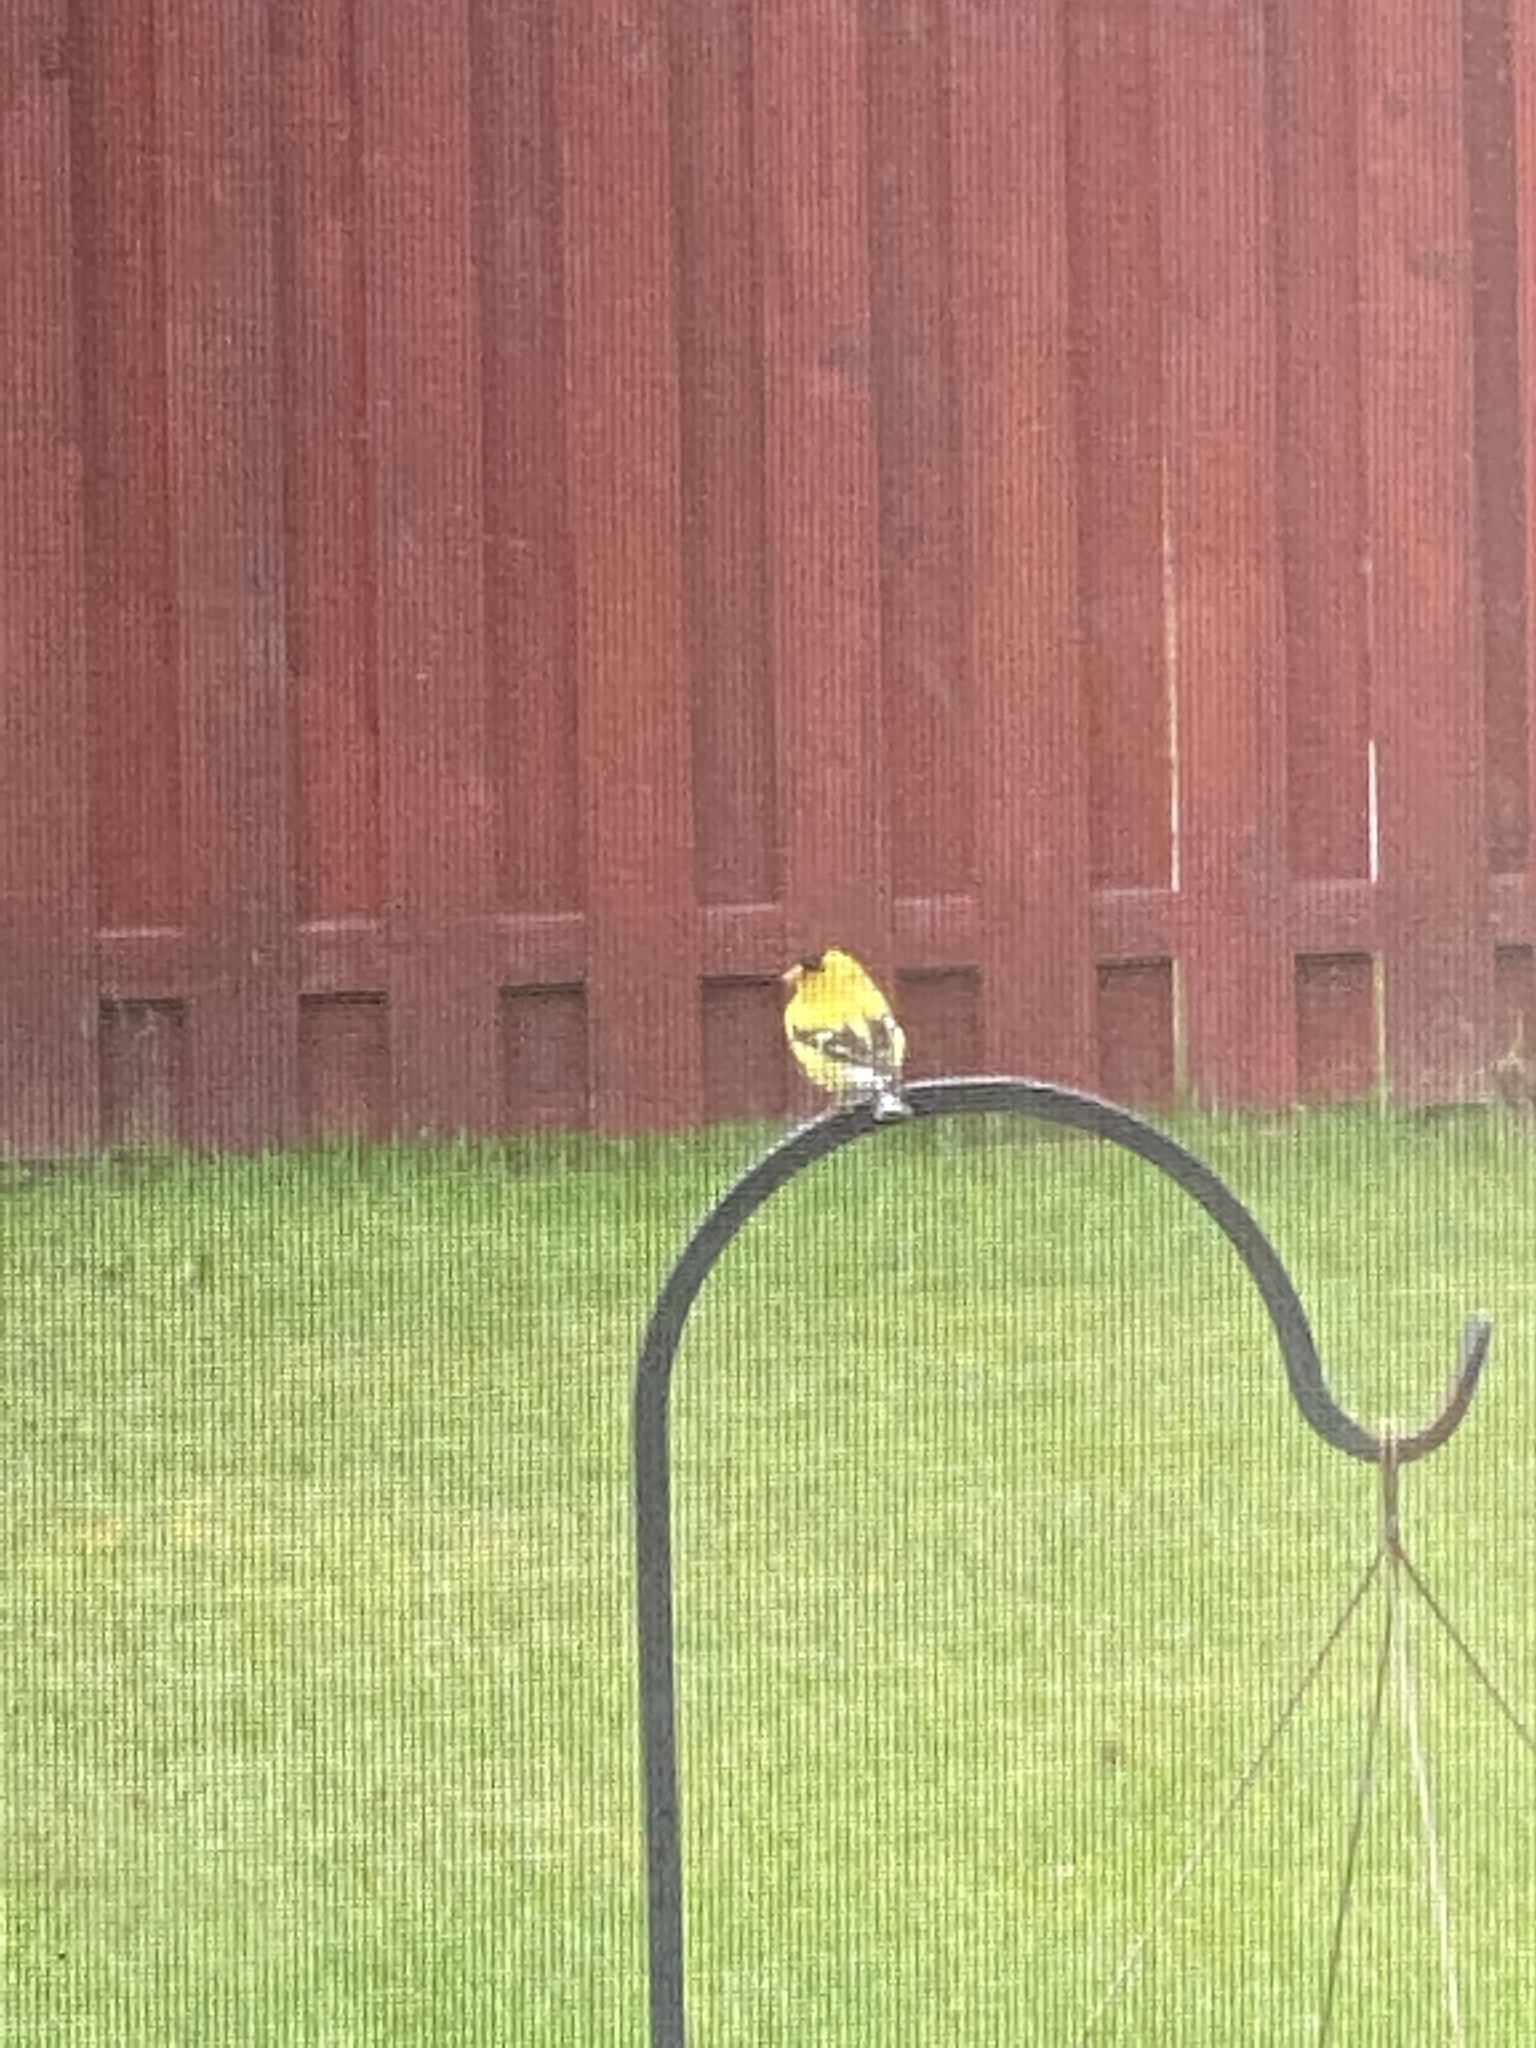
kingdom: Animalia
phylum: Chordata
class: Aves
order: Passeriformes
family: Fringillidae
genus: Spinus
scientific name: Spinus tristis
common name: American goldfinch
